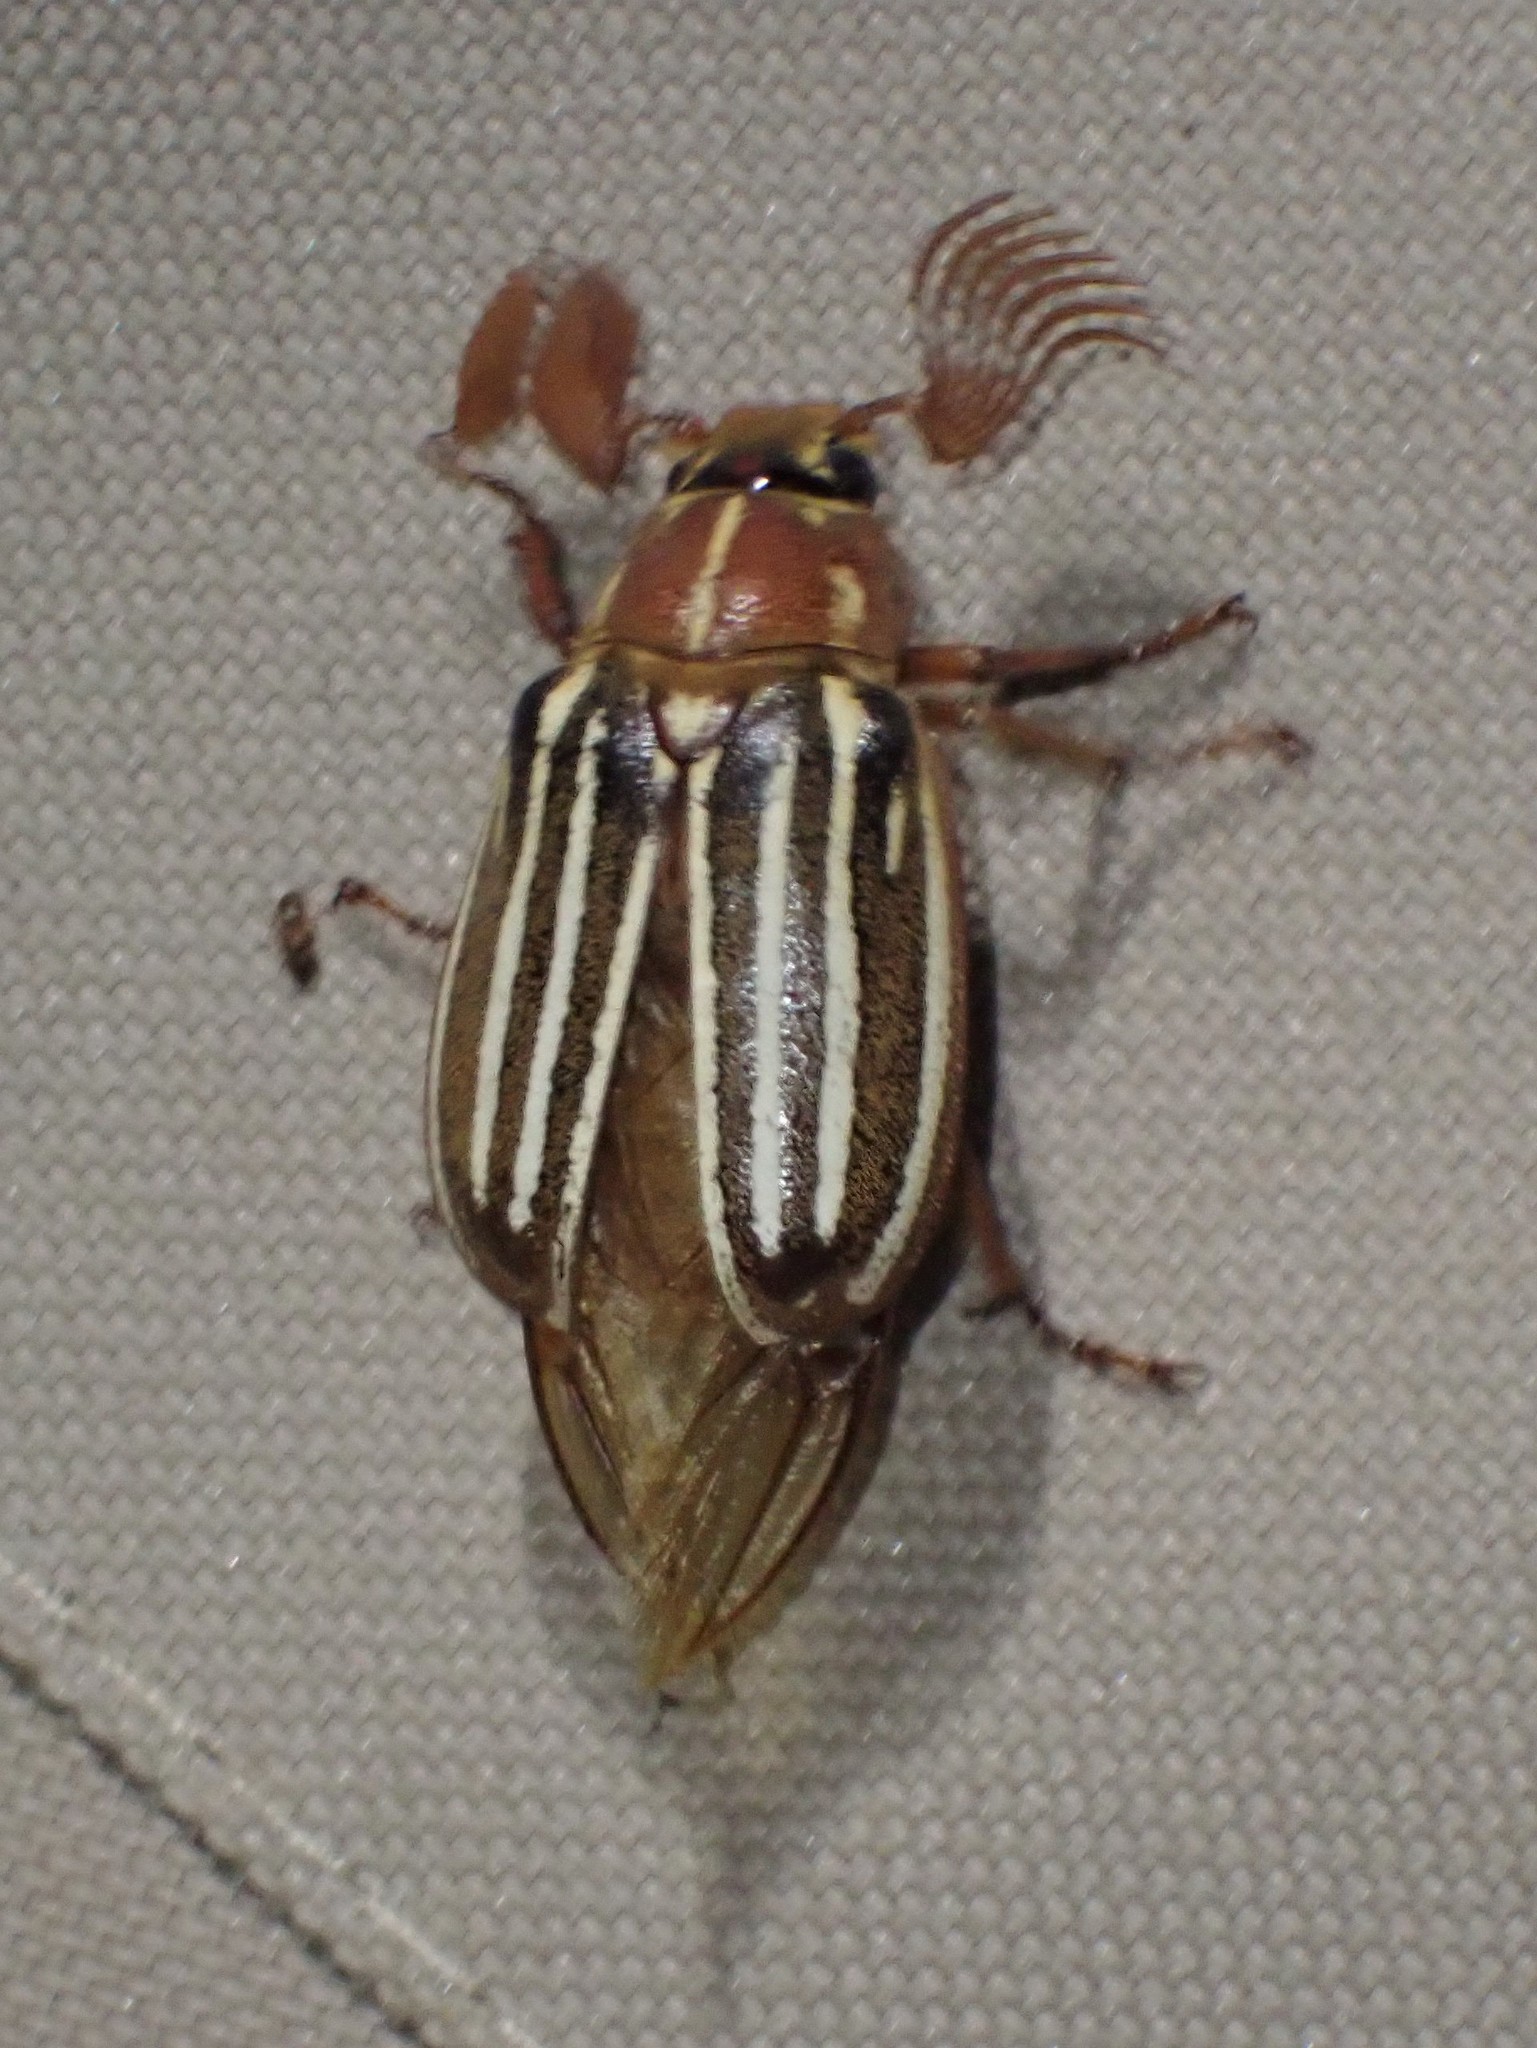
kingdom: Animalia
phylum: Arthropoda
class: Insecta
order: Coleoptera
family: Scarabaeidae
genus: Polyphylla
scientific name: Polyphylla crinita
